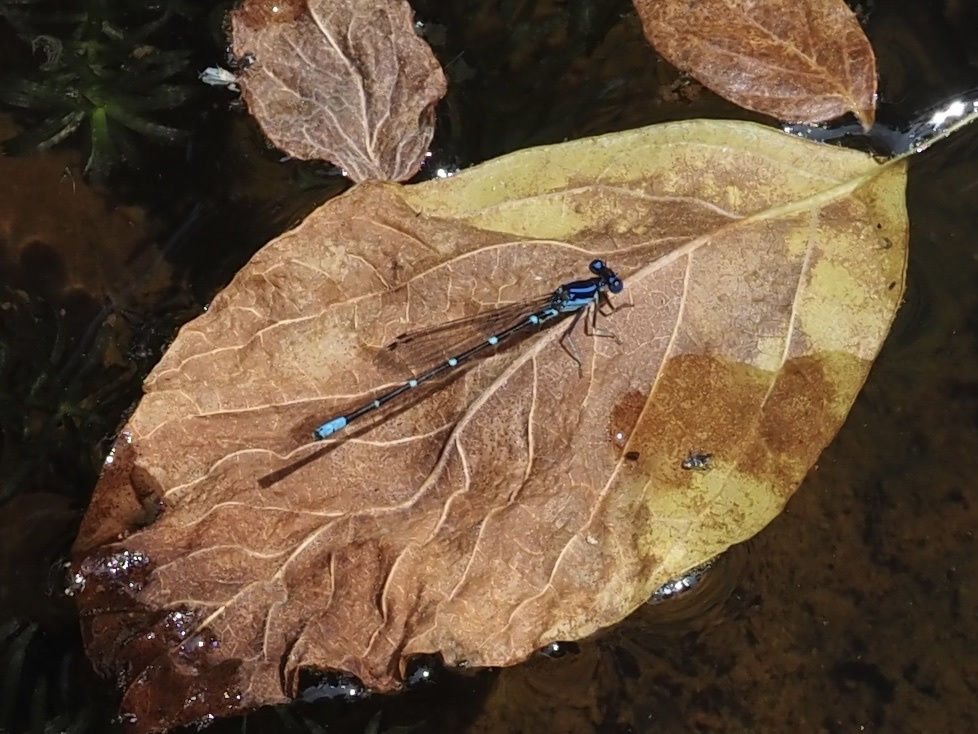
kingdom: Animalia
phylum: Arthropoda
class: Insecta
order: Odonata
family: Coenagrionidae
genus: Argia
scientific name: Argia sedula
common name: Blue-ringed dancer
